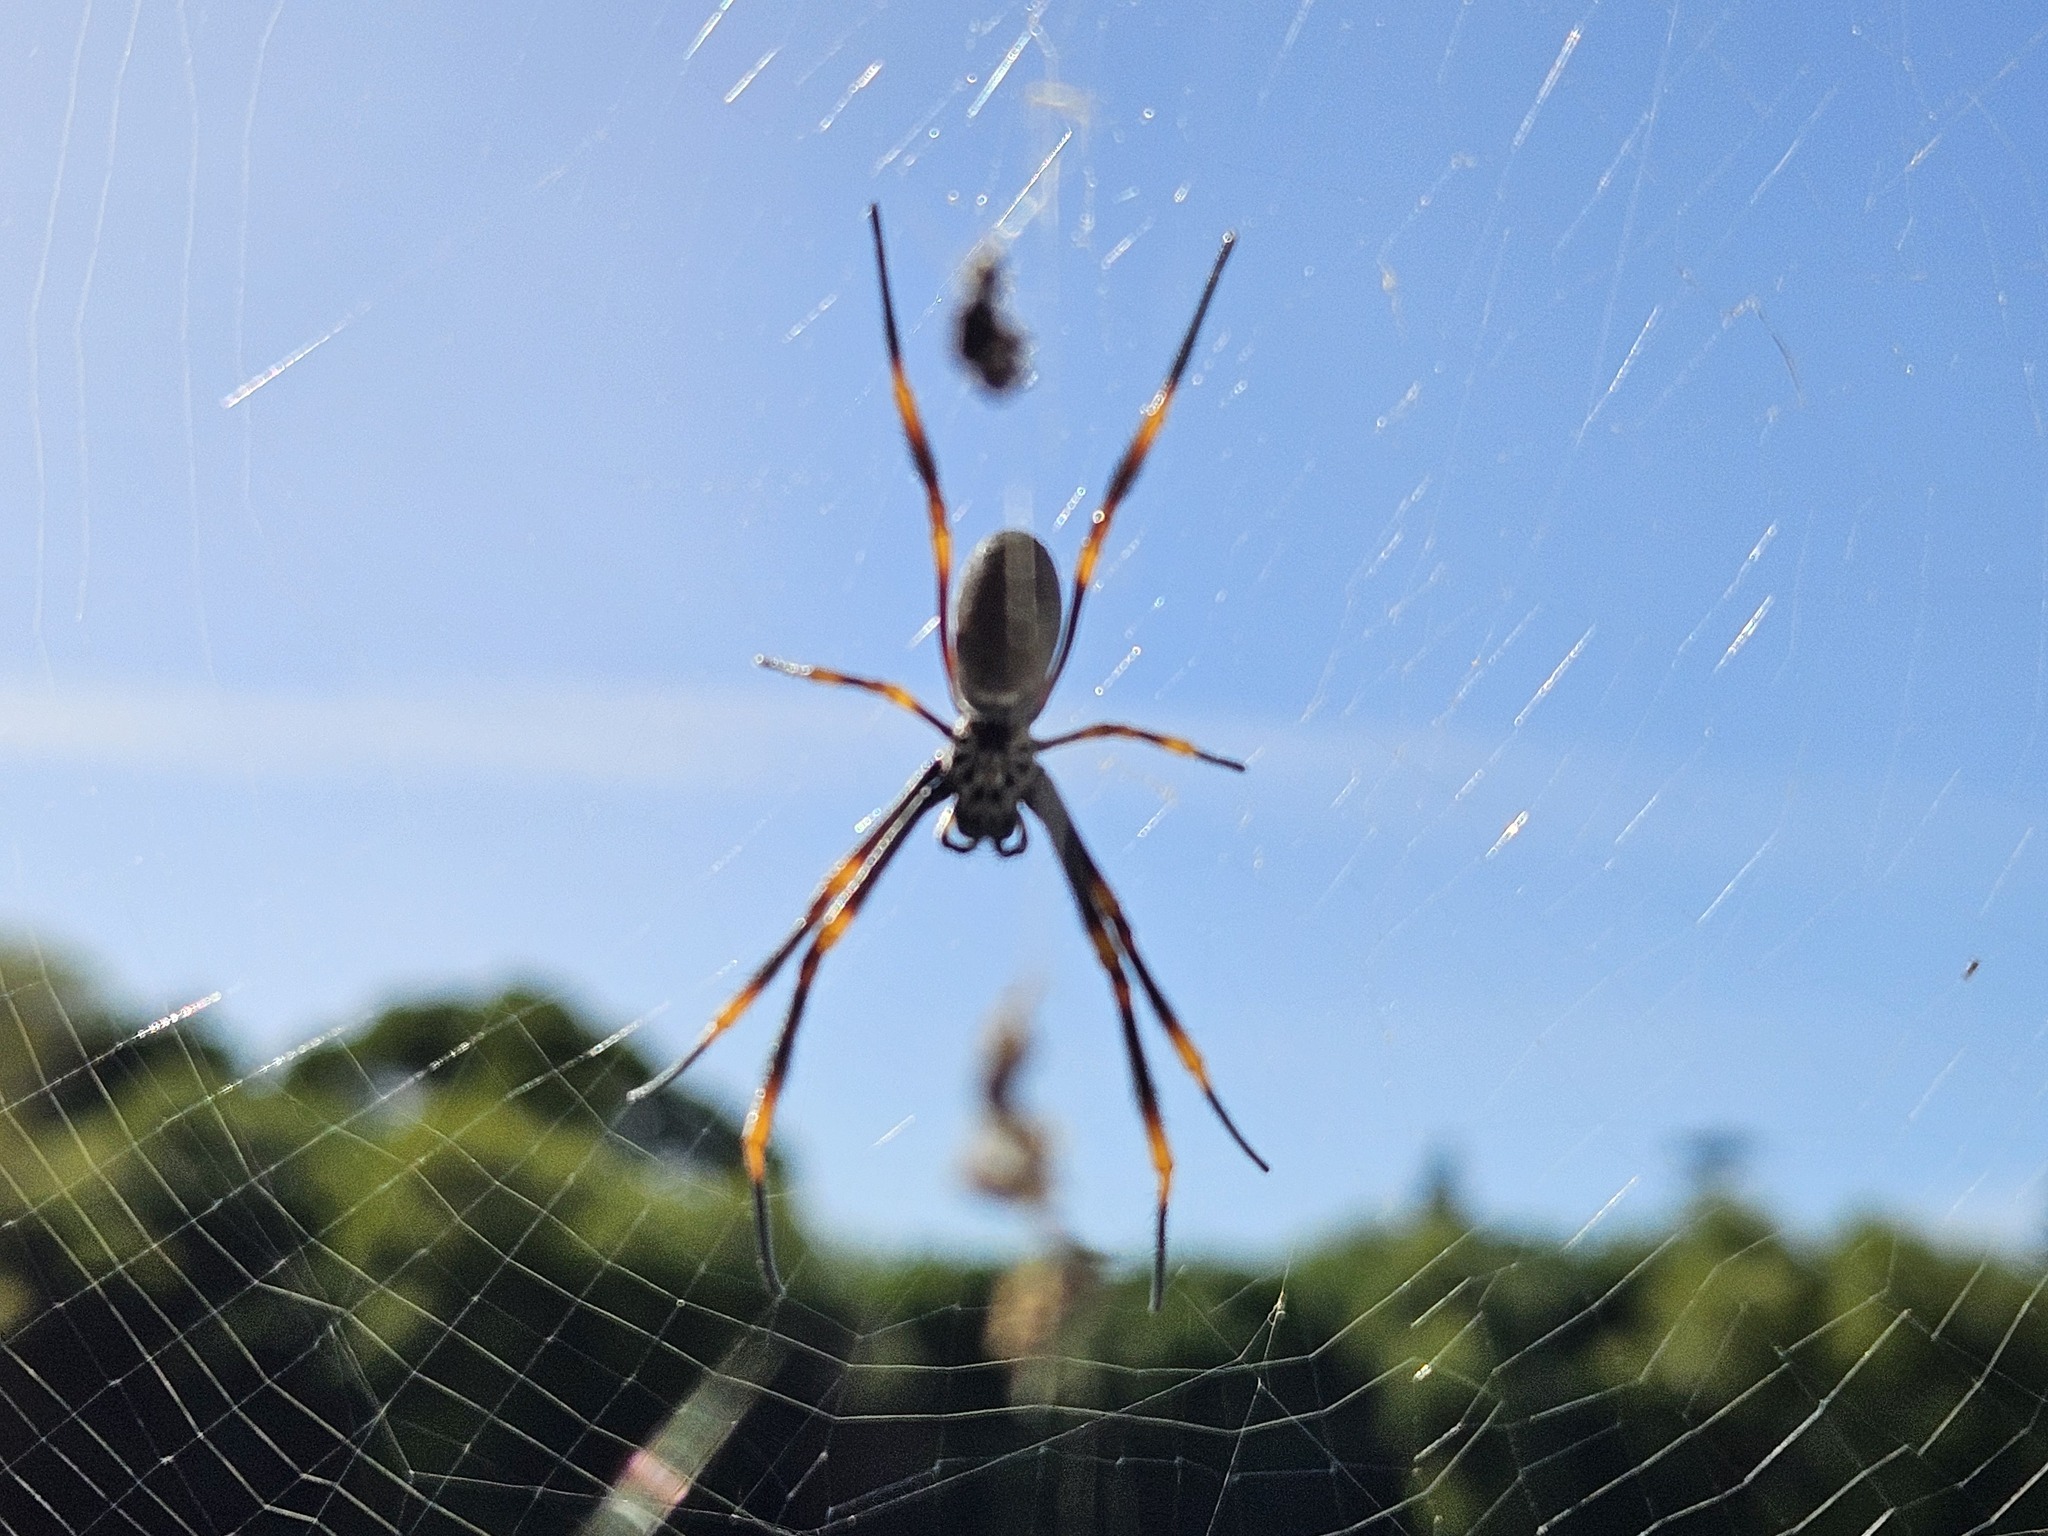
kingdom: Animalia
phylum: Arthropoda
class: Arachnida
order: Araneae
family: Araneidae
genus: Trichonephila
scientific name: Trichonephila plumipes
